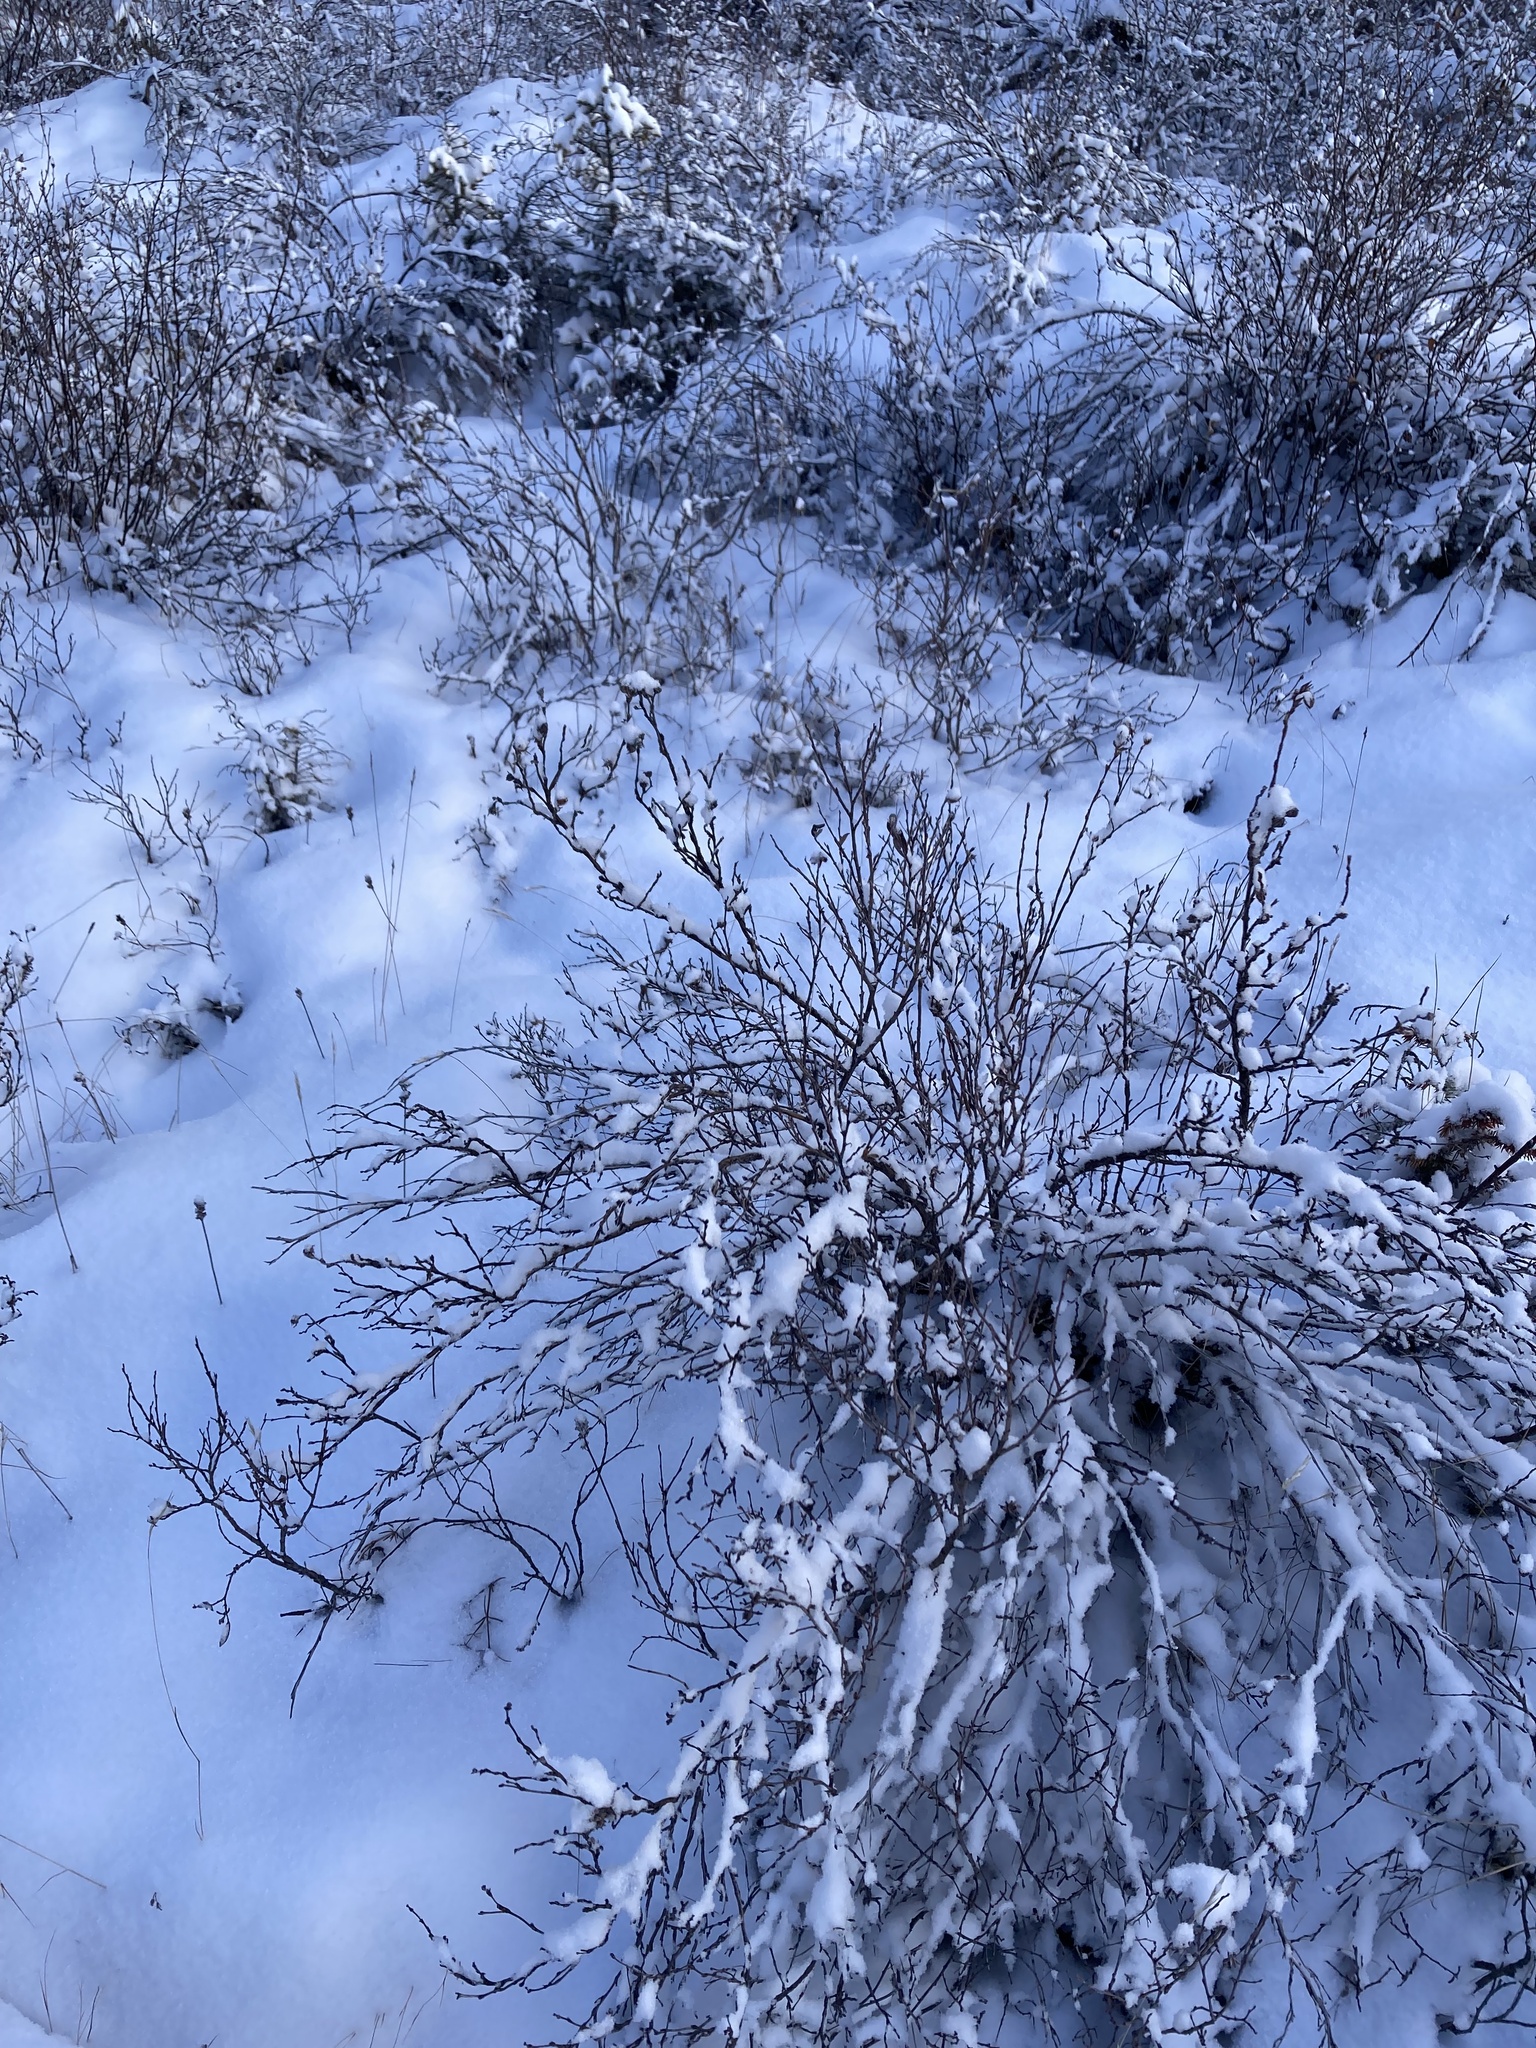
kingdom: Plantae
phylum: Tracheophyta
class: Magnoliopsida
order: Rosales
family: Rosaceae
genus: Dasiphora
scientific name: Dasiphora fruticosa
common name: Shrubby cinquefoil
